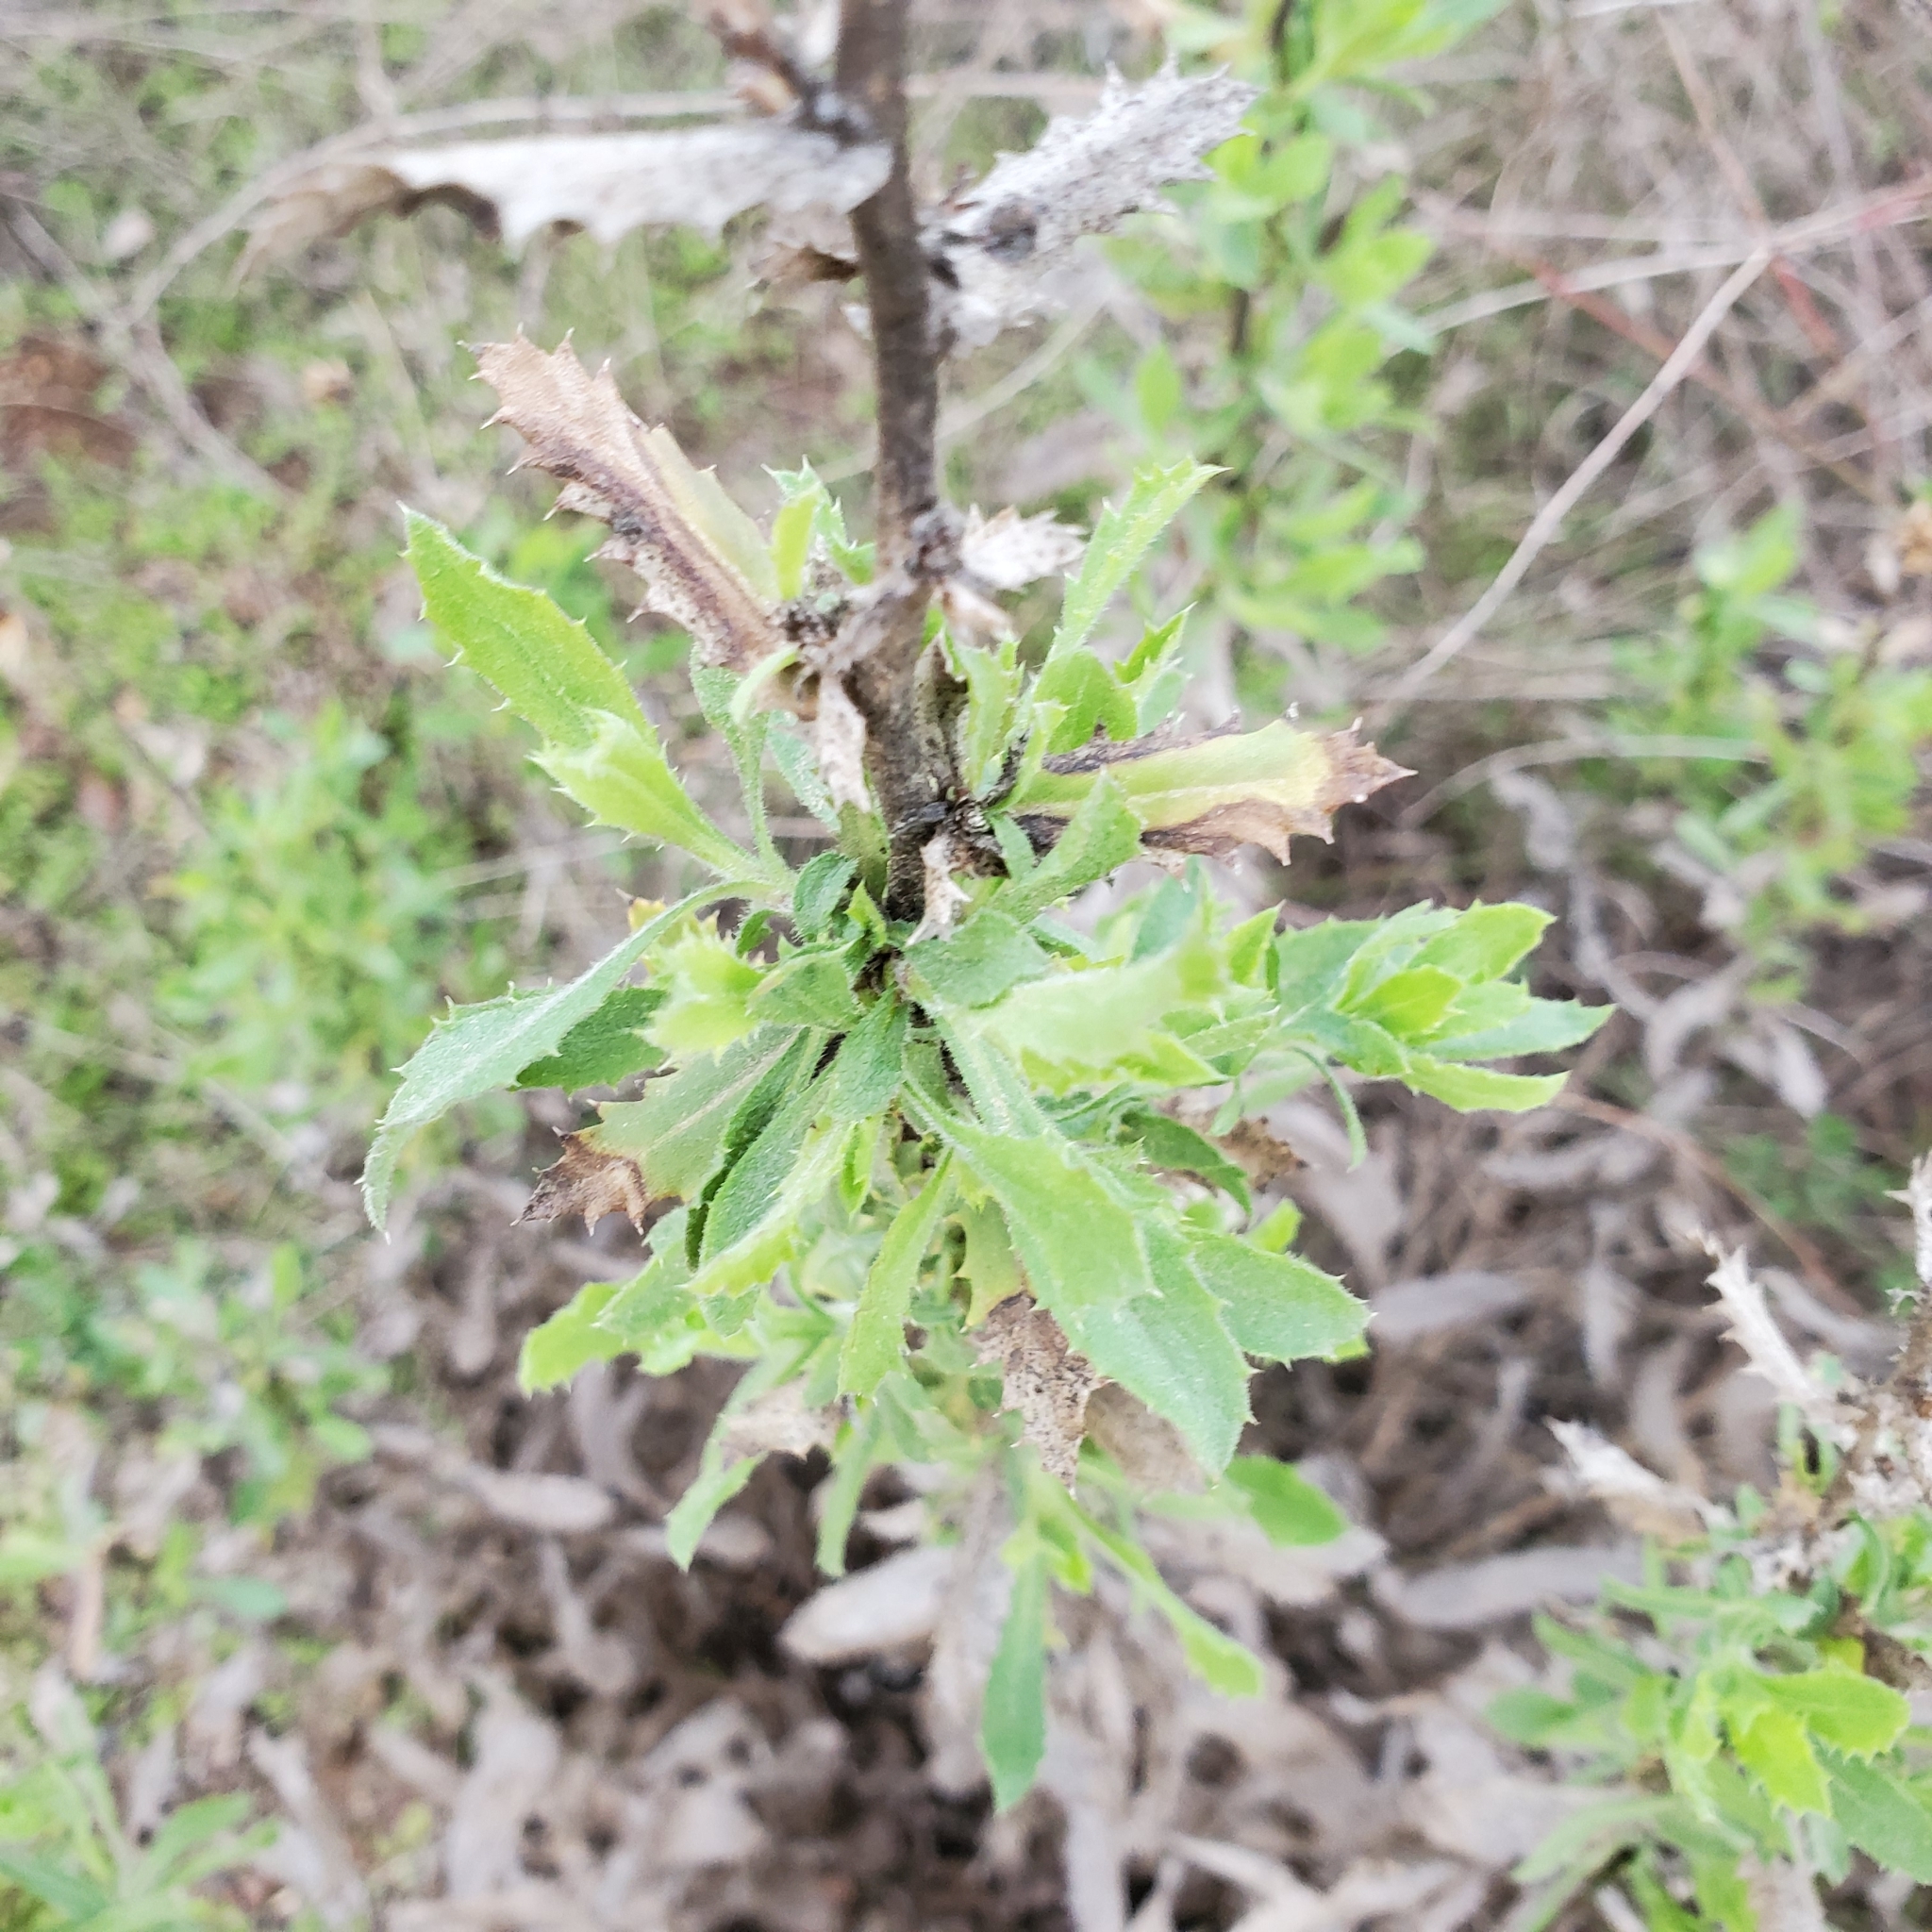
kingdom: Plantae
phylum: Tracheophyta
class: Magnoliopsida
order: Asterales
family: Asteraceae
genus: Hazardia
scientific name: Hazardia squarrosa
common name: Saw-tooth goldenbush
